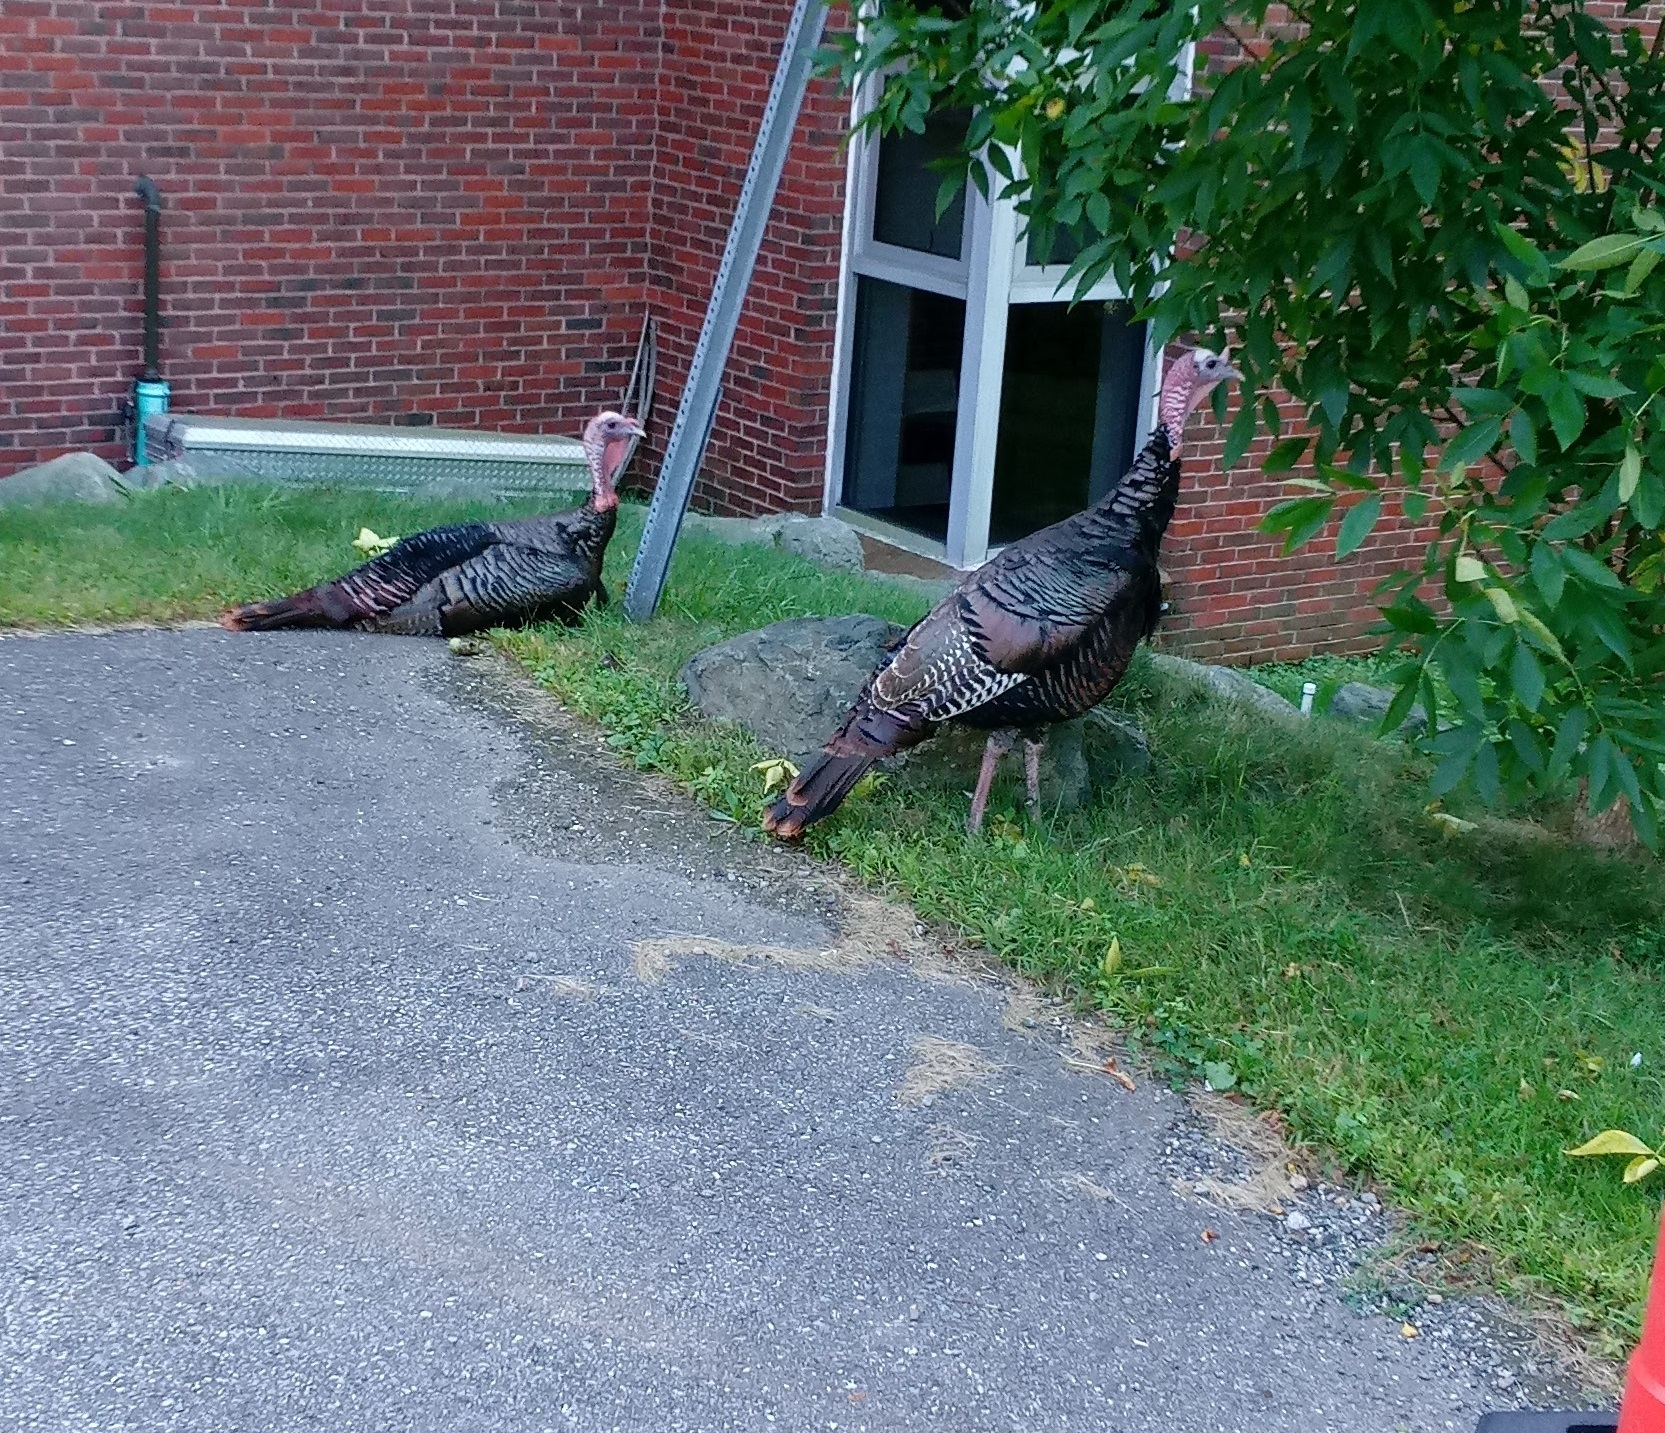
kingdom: Animalia
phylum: Chordata
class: Aves
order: Galliformes
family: Phasianidae
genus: Meleagris
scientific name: Meleagris gallopavo
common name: Wild turkey
